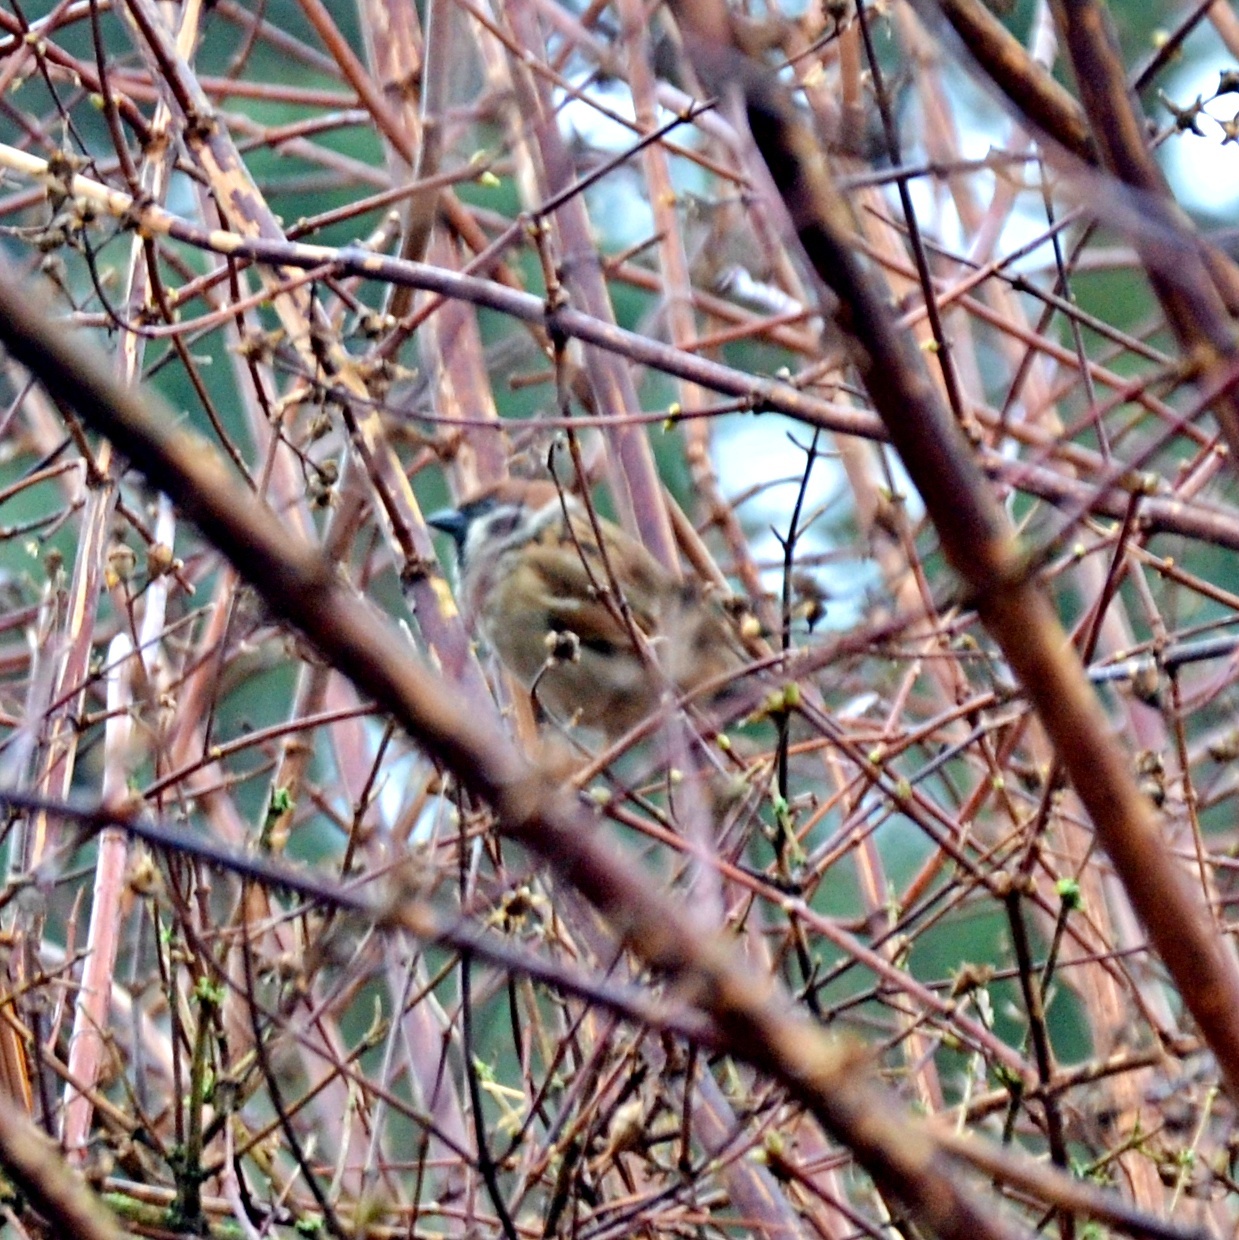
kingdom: Animalia
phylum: Chordata
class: Aves
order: Passeriformes
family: Passeridae
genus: Passer
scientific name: Passer montanus
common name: Eurasian tree sparrow
